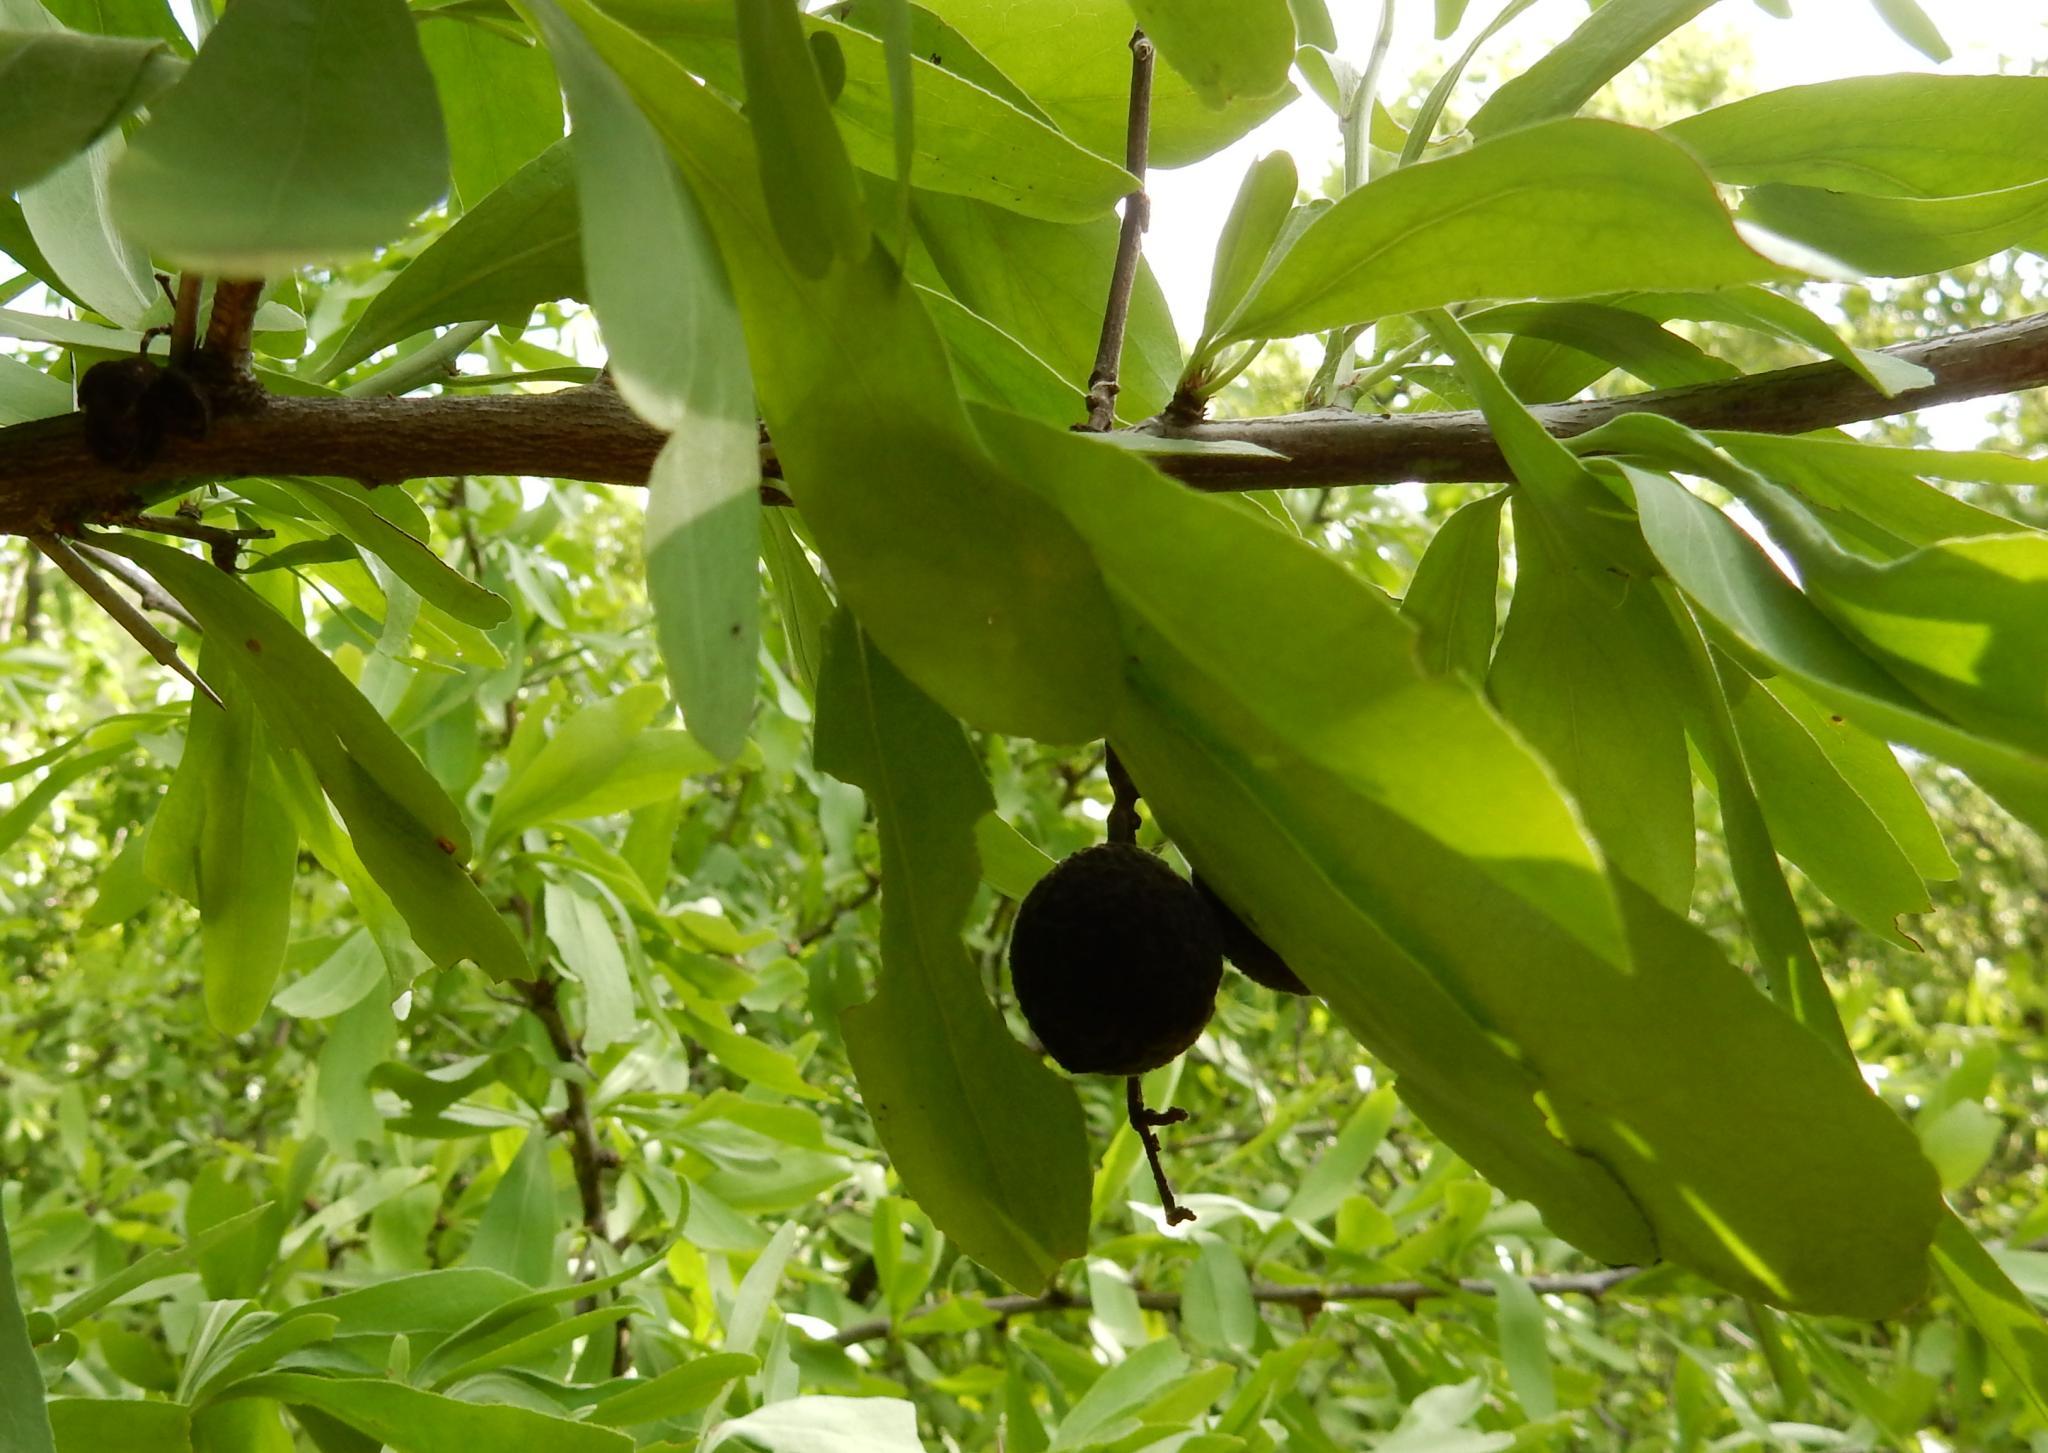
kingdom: Plantae
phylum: Tracheophyta
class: Magnoliopsida
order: Celastrales
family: Celastraceae
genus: Gymnosporia
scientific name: Gymnosporia buxifolia
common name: Common spike-thorn
